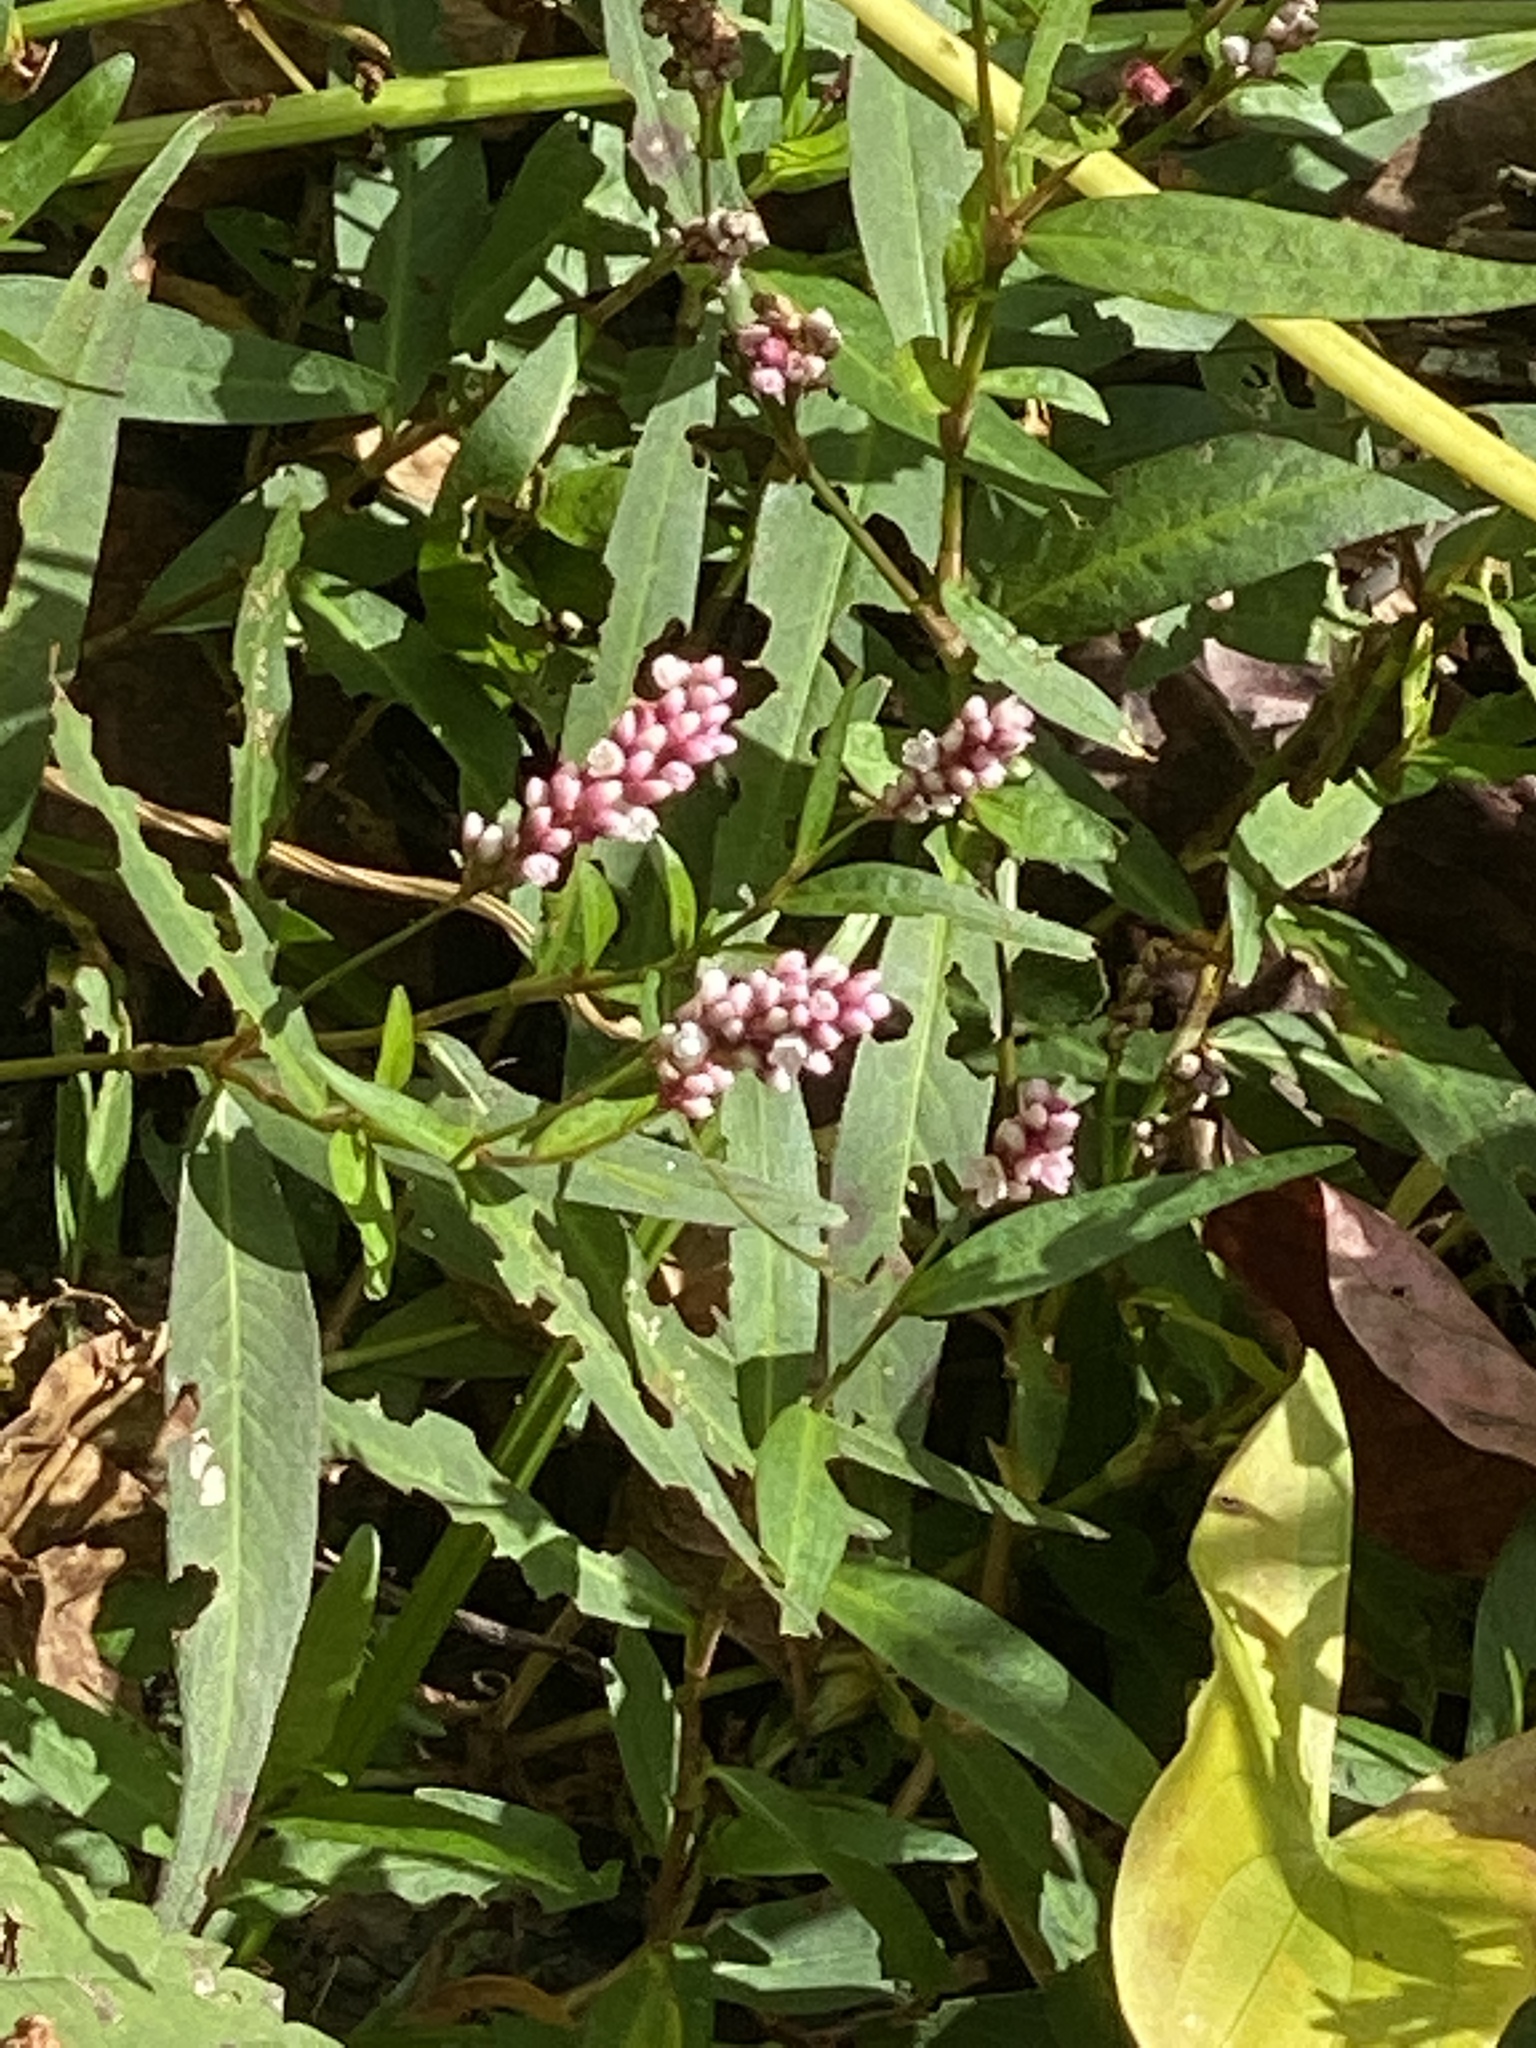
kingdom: Plantae
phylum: Tracheophyta
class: Magnoliopsida
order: Caryophyllales
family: Polygonaceae
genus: Persicaria
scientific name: Persicaria pensylvanica
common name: Pinkweed
